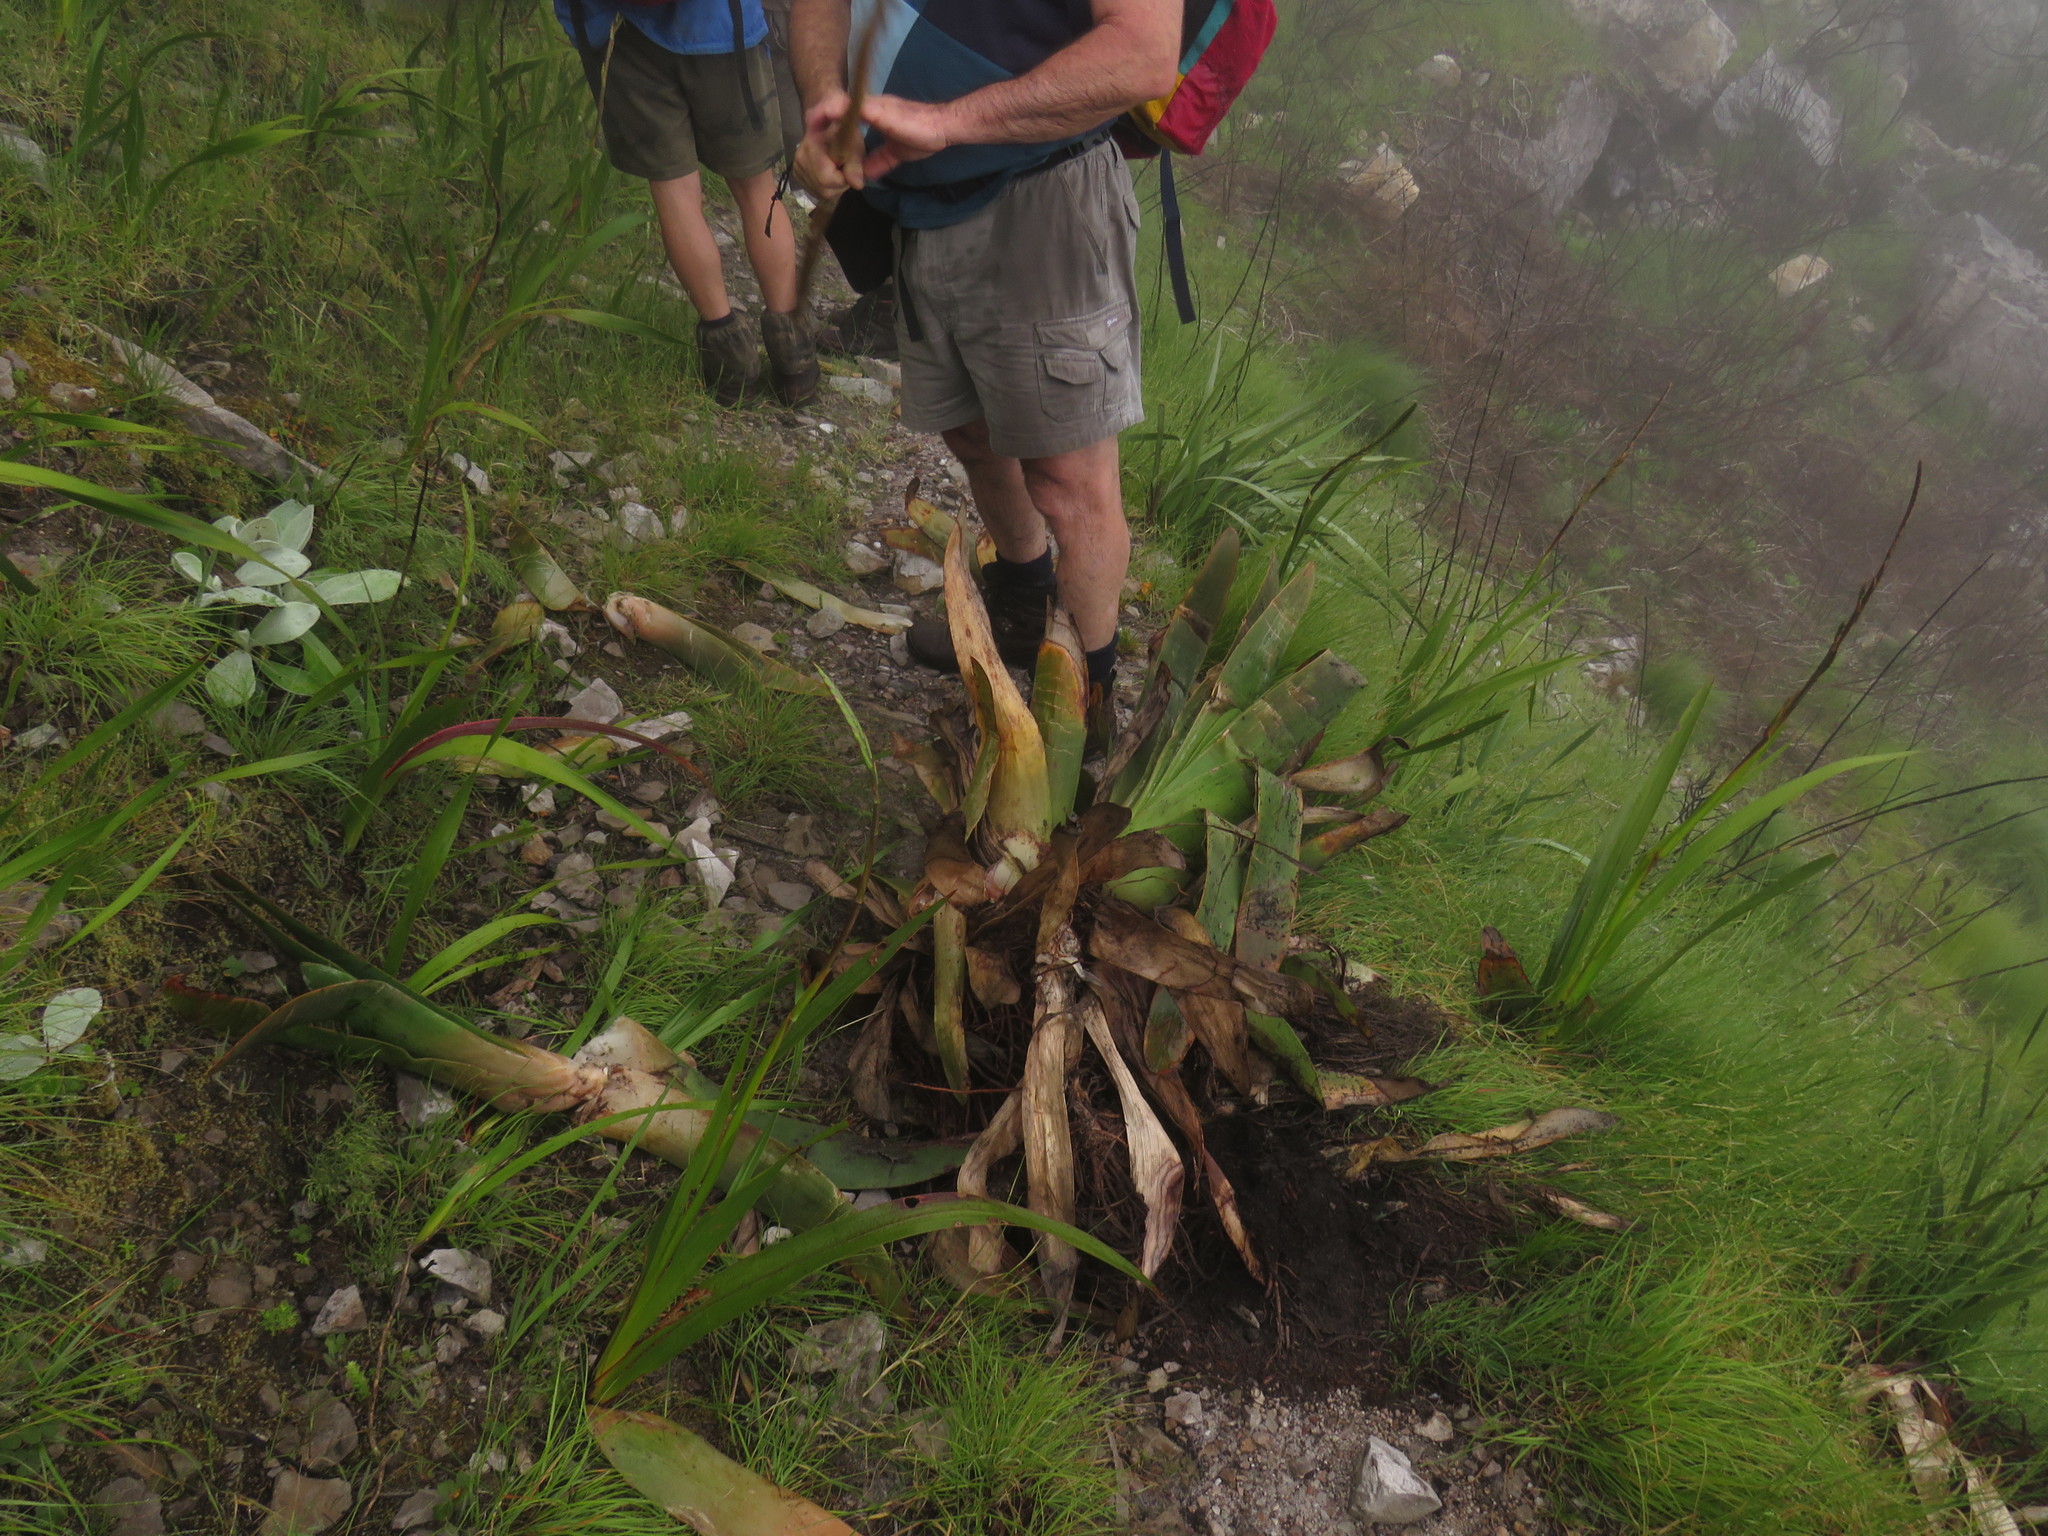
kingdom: Plantae
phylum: Tracheophyta
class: Liliopsida
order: Asparagales
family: Asphodelaceae
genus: Kumara
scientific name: Kumara haemanthifolia
